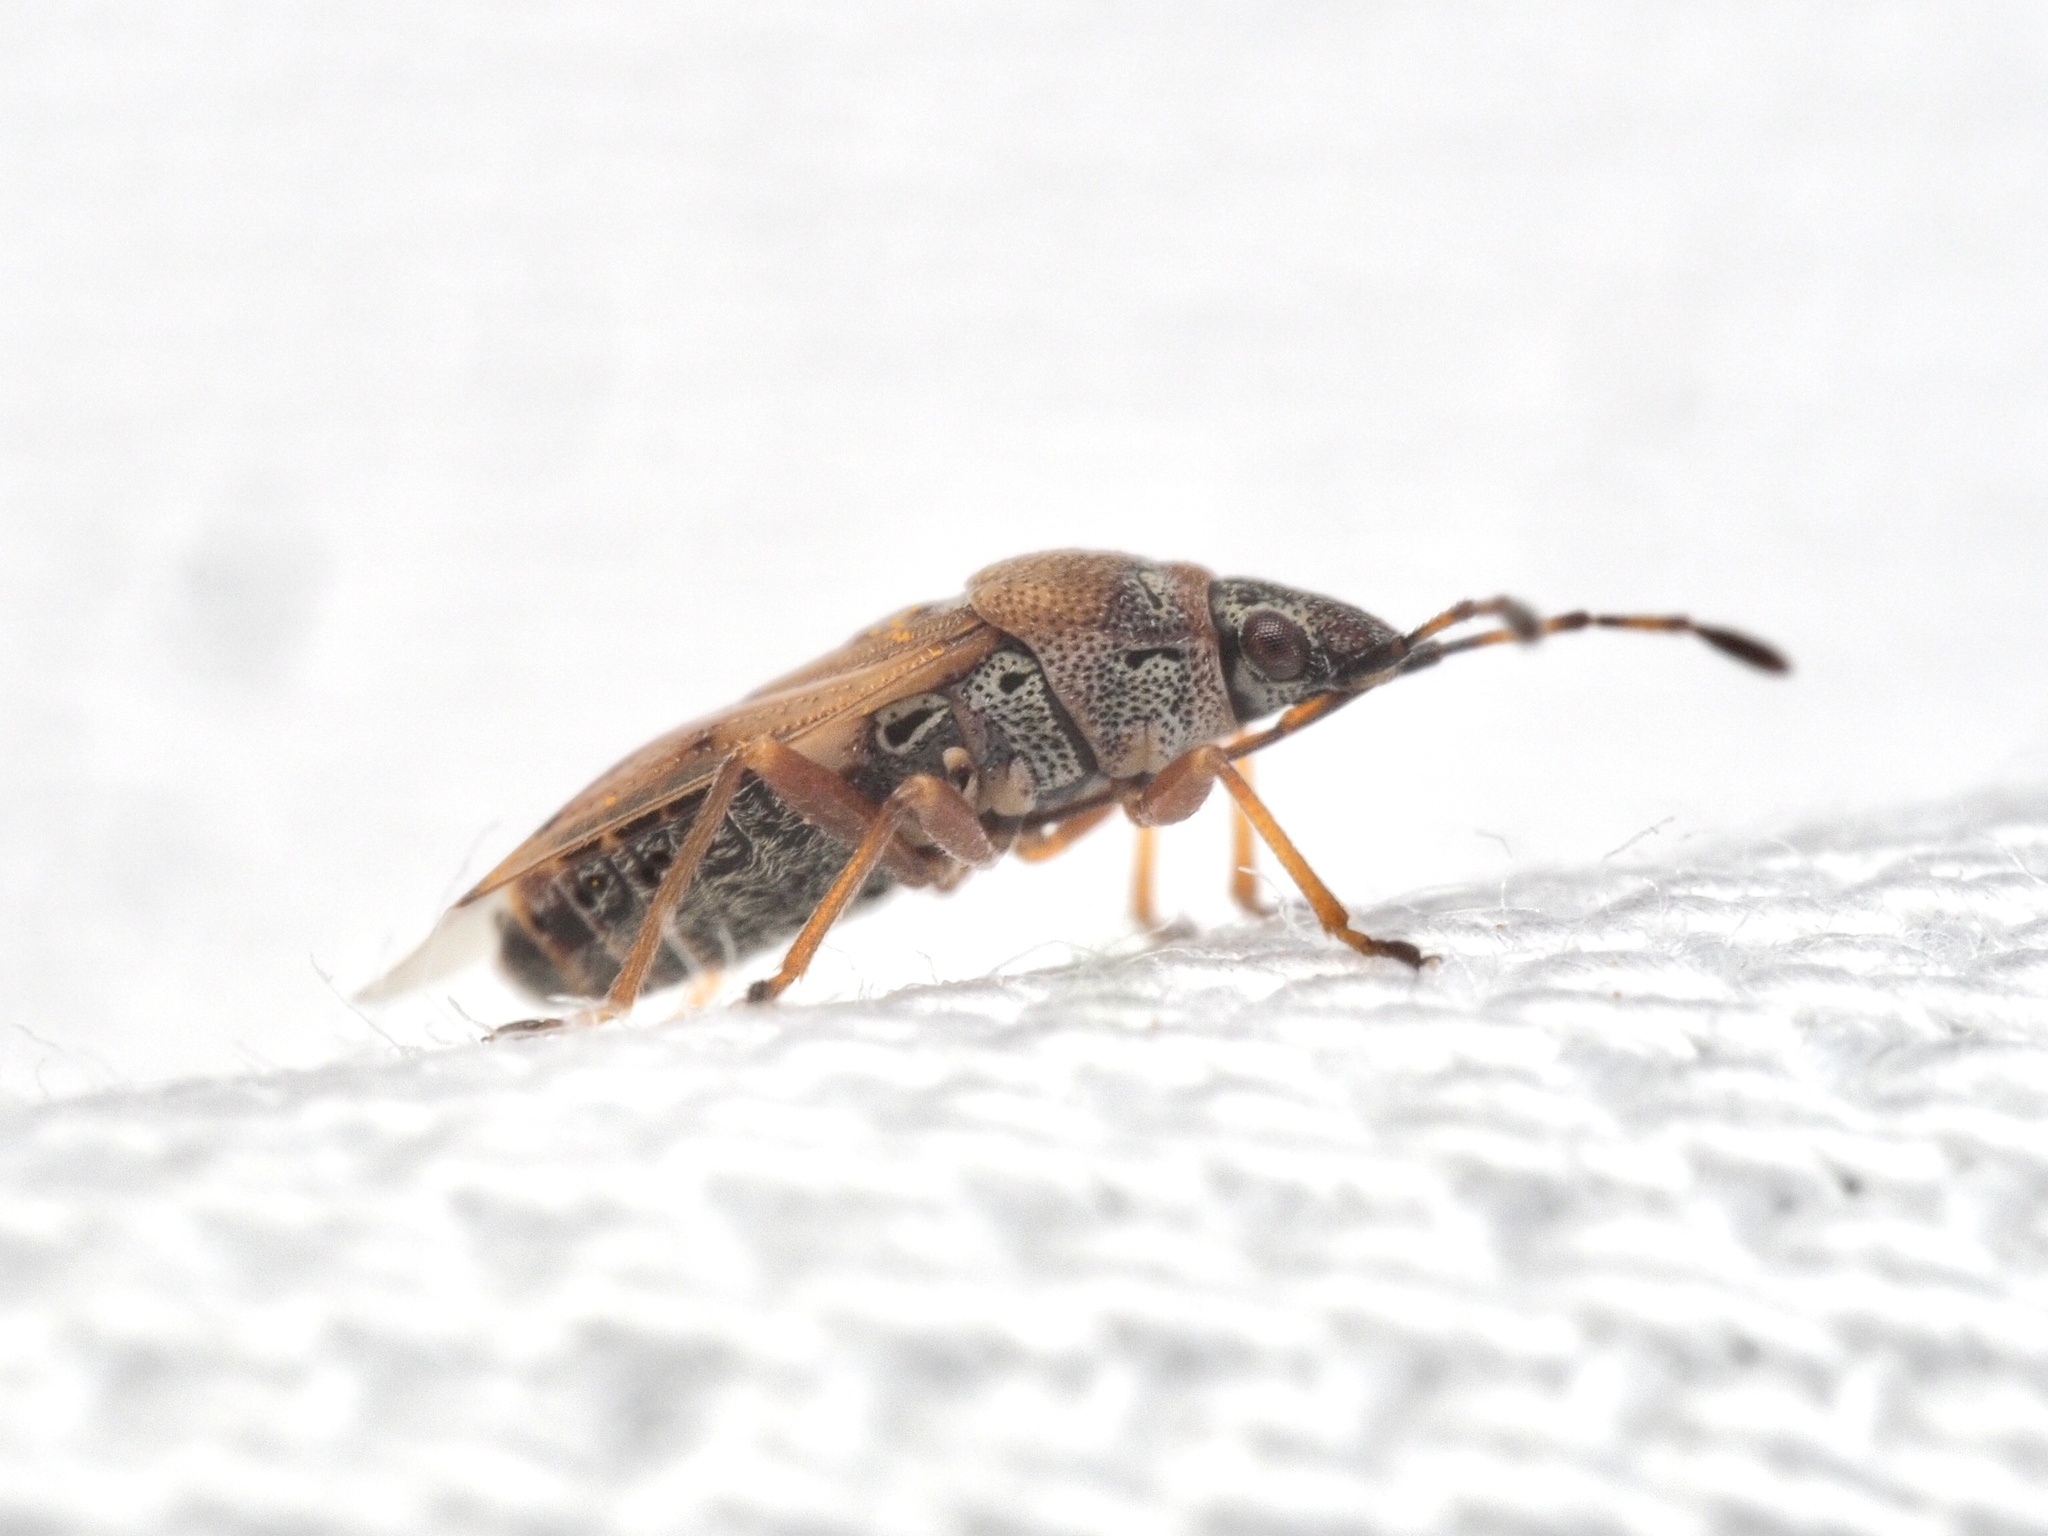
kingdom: Animalia
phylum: Arthropoda
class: Insecta
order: Hemiptera
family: Lygaeidae
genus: Kleidocerys
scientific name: Kleidocerys resedae
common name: Birch catkin bug
